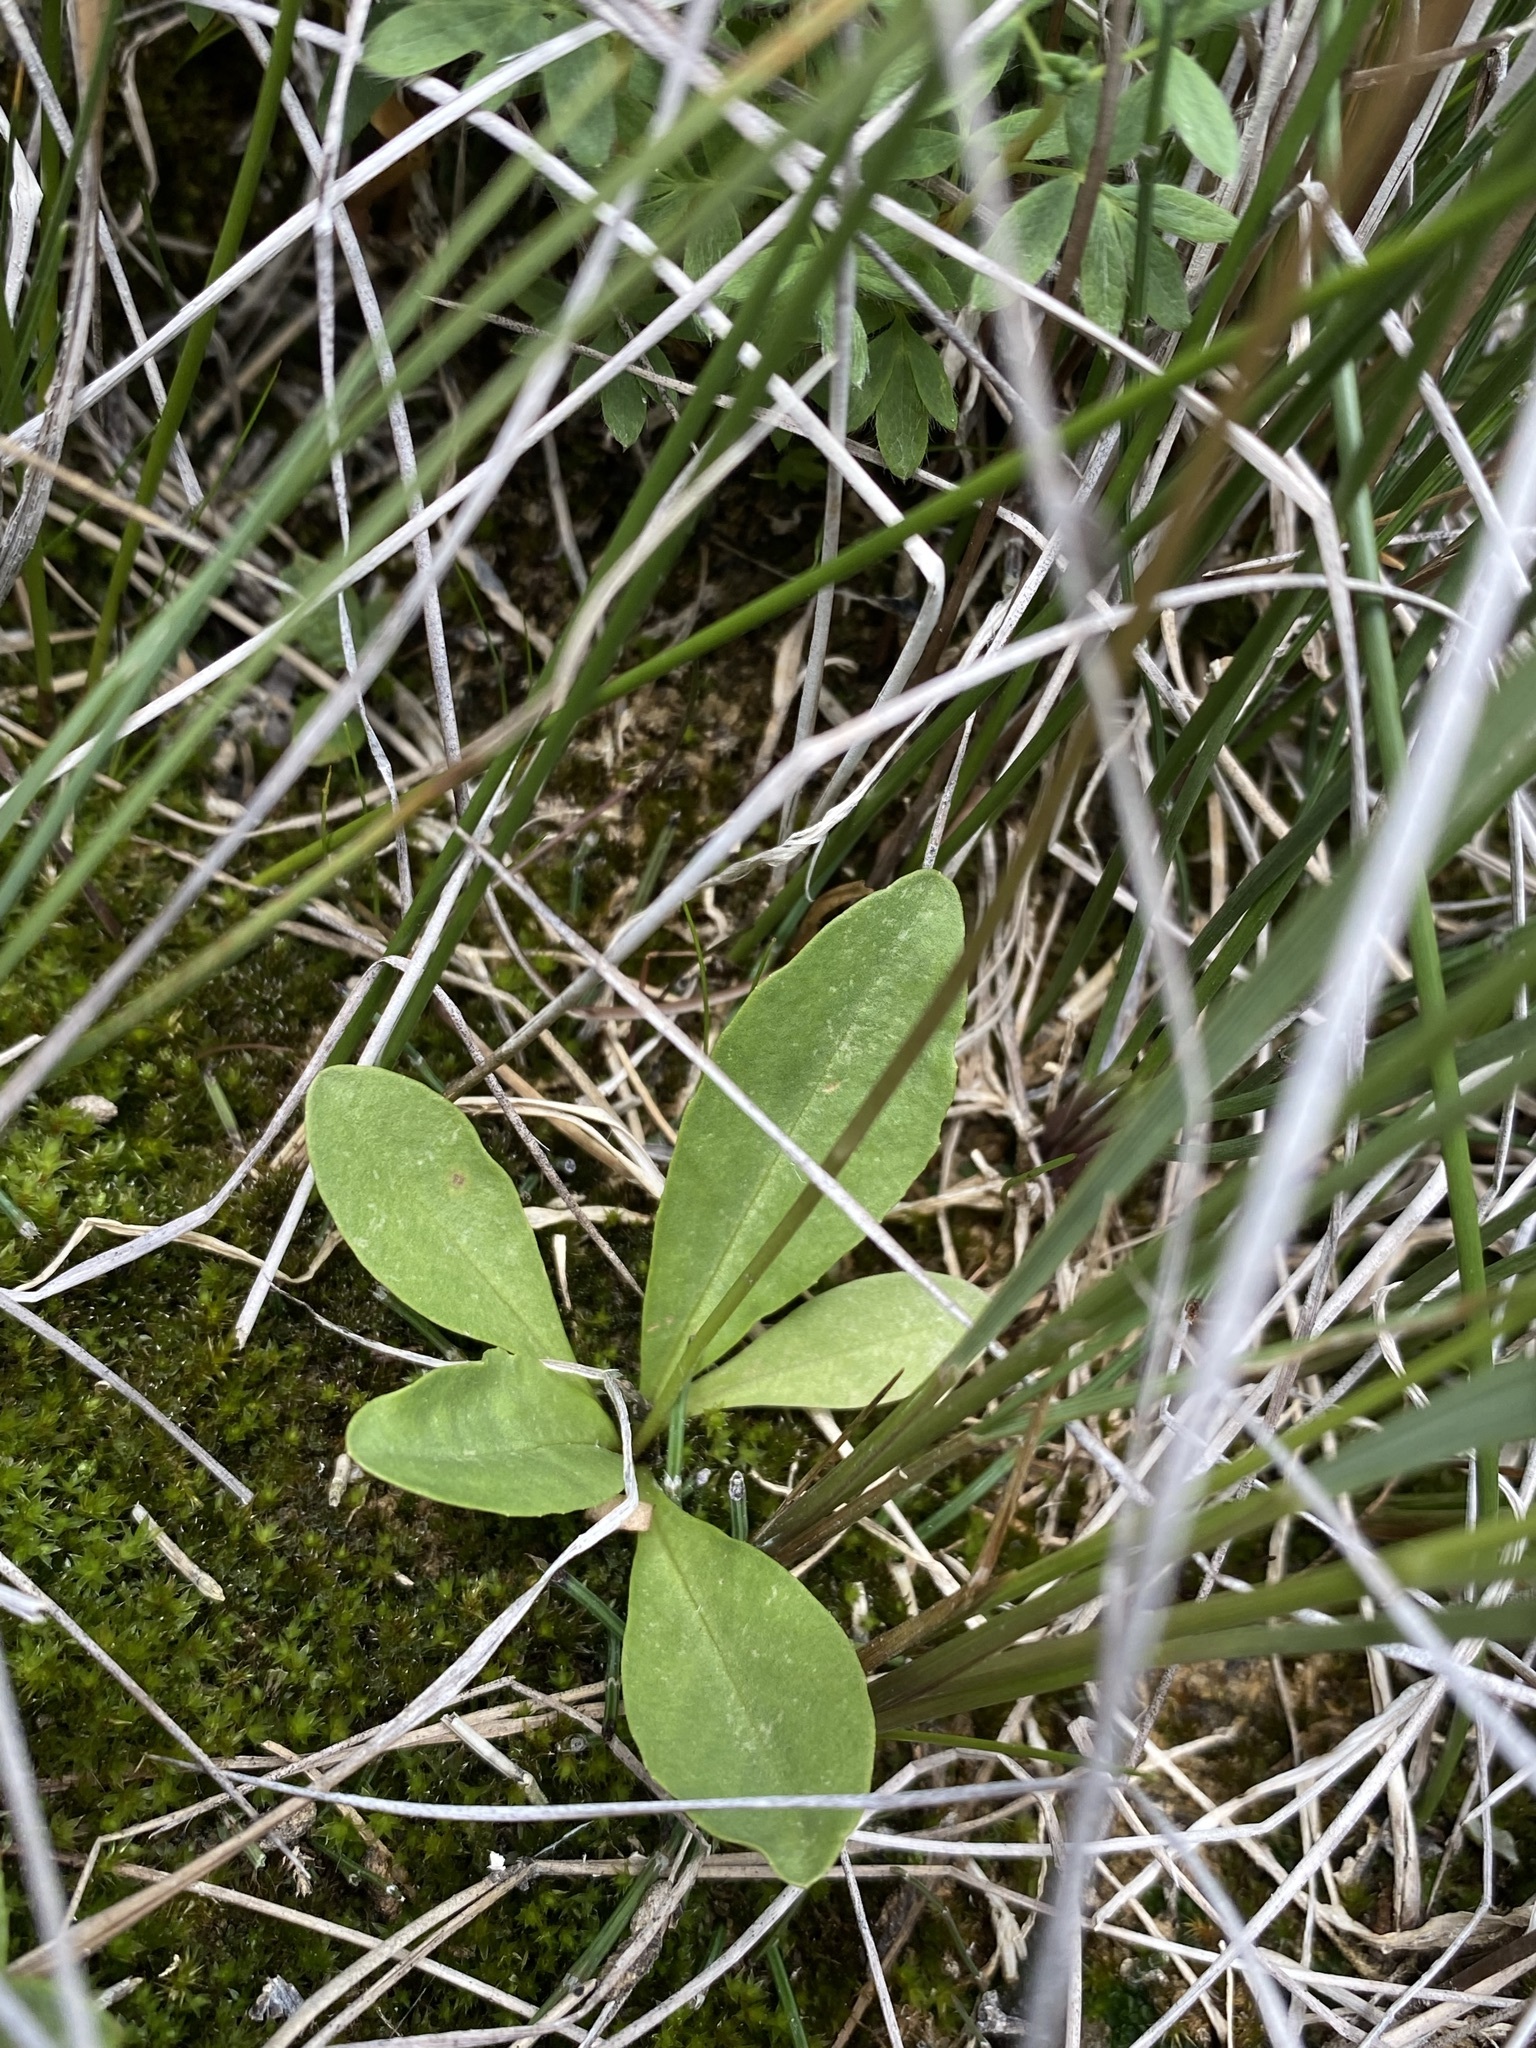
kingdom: Plantae
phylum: Tracheophyta
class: Magnoliopsida
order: Ericales
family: Primulaceae
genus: Dodecatheon
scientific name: Dodecatheon pulchellum
